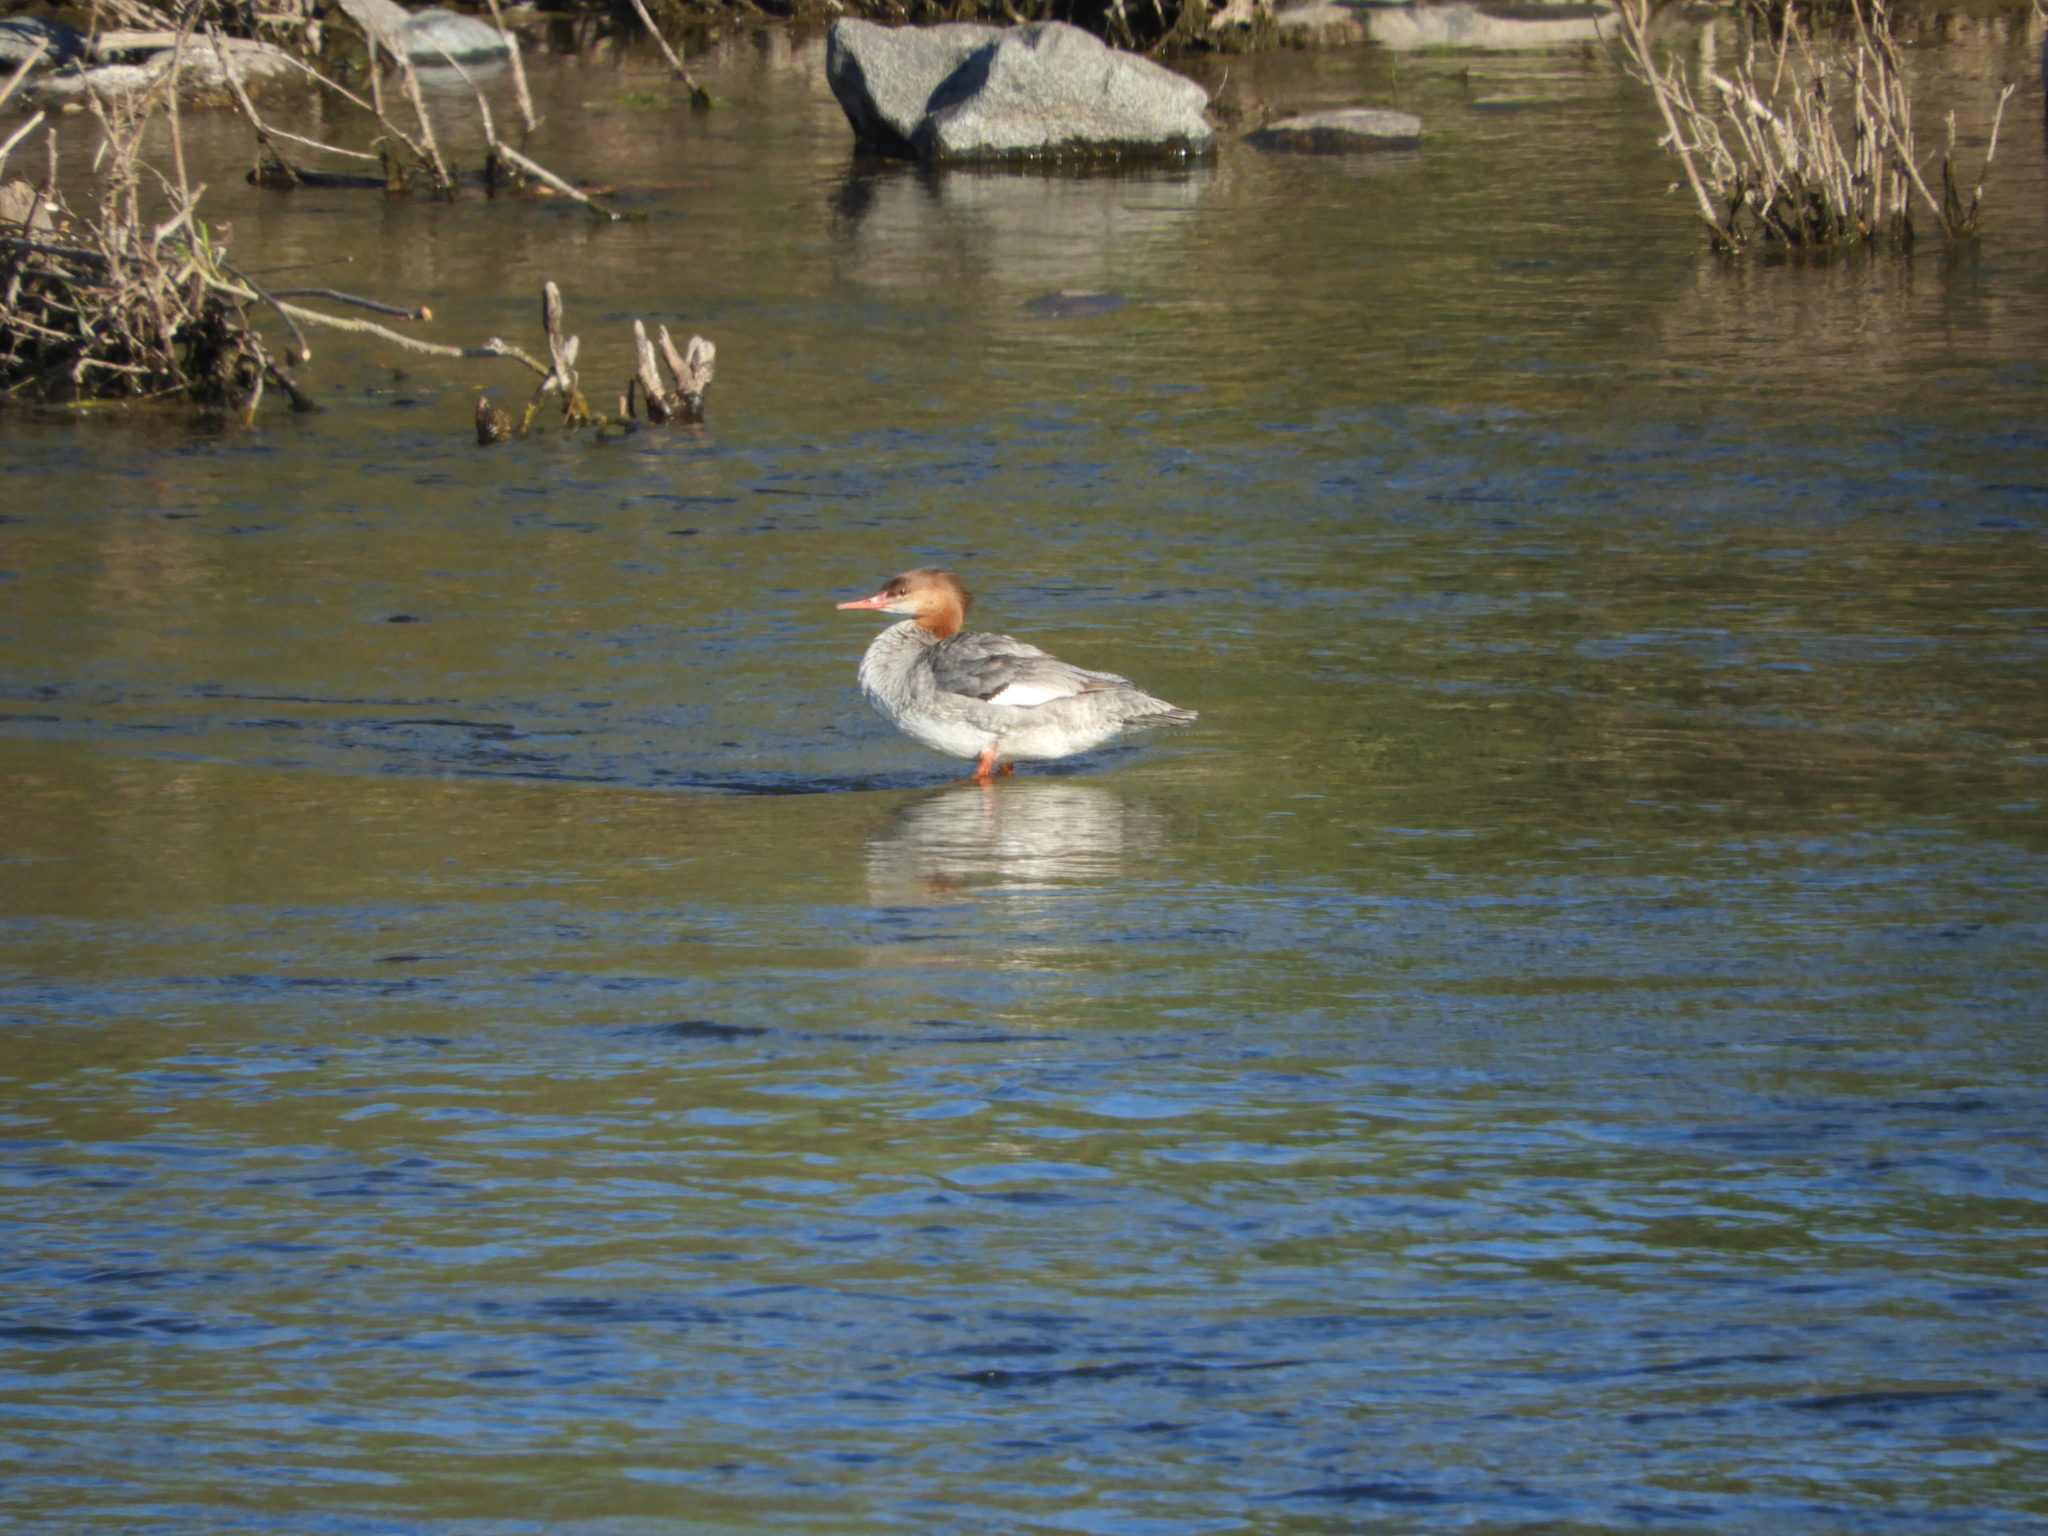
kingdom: Animalia
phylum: Chordata
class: Aves
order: Anseriformes
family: Anatidae
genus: Mergus
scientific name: Mergus merganser
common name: Common merganser
